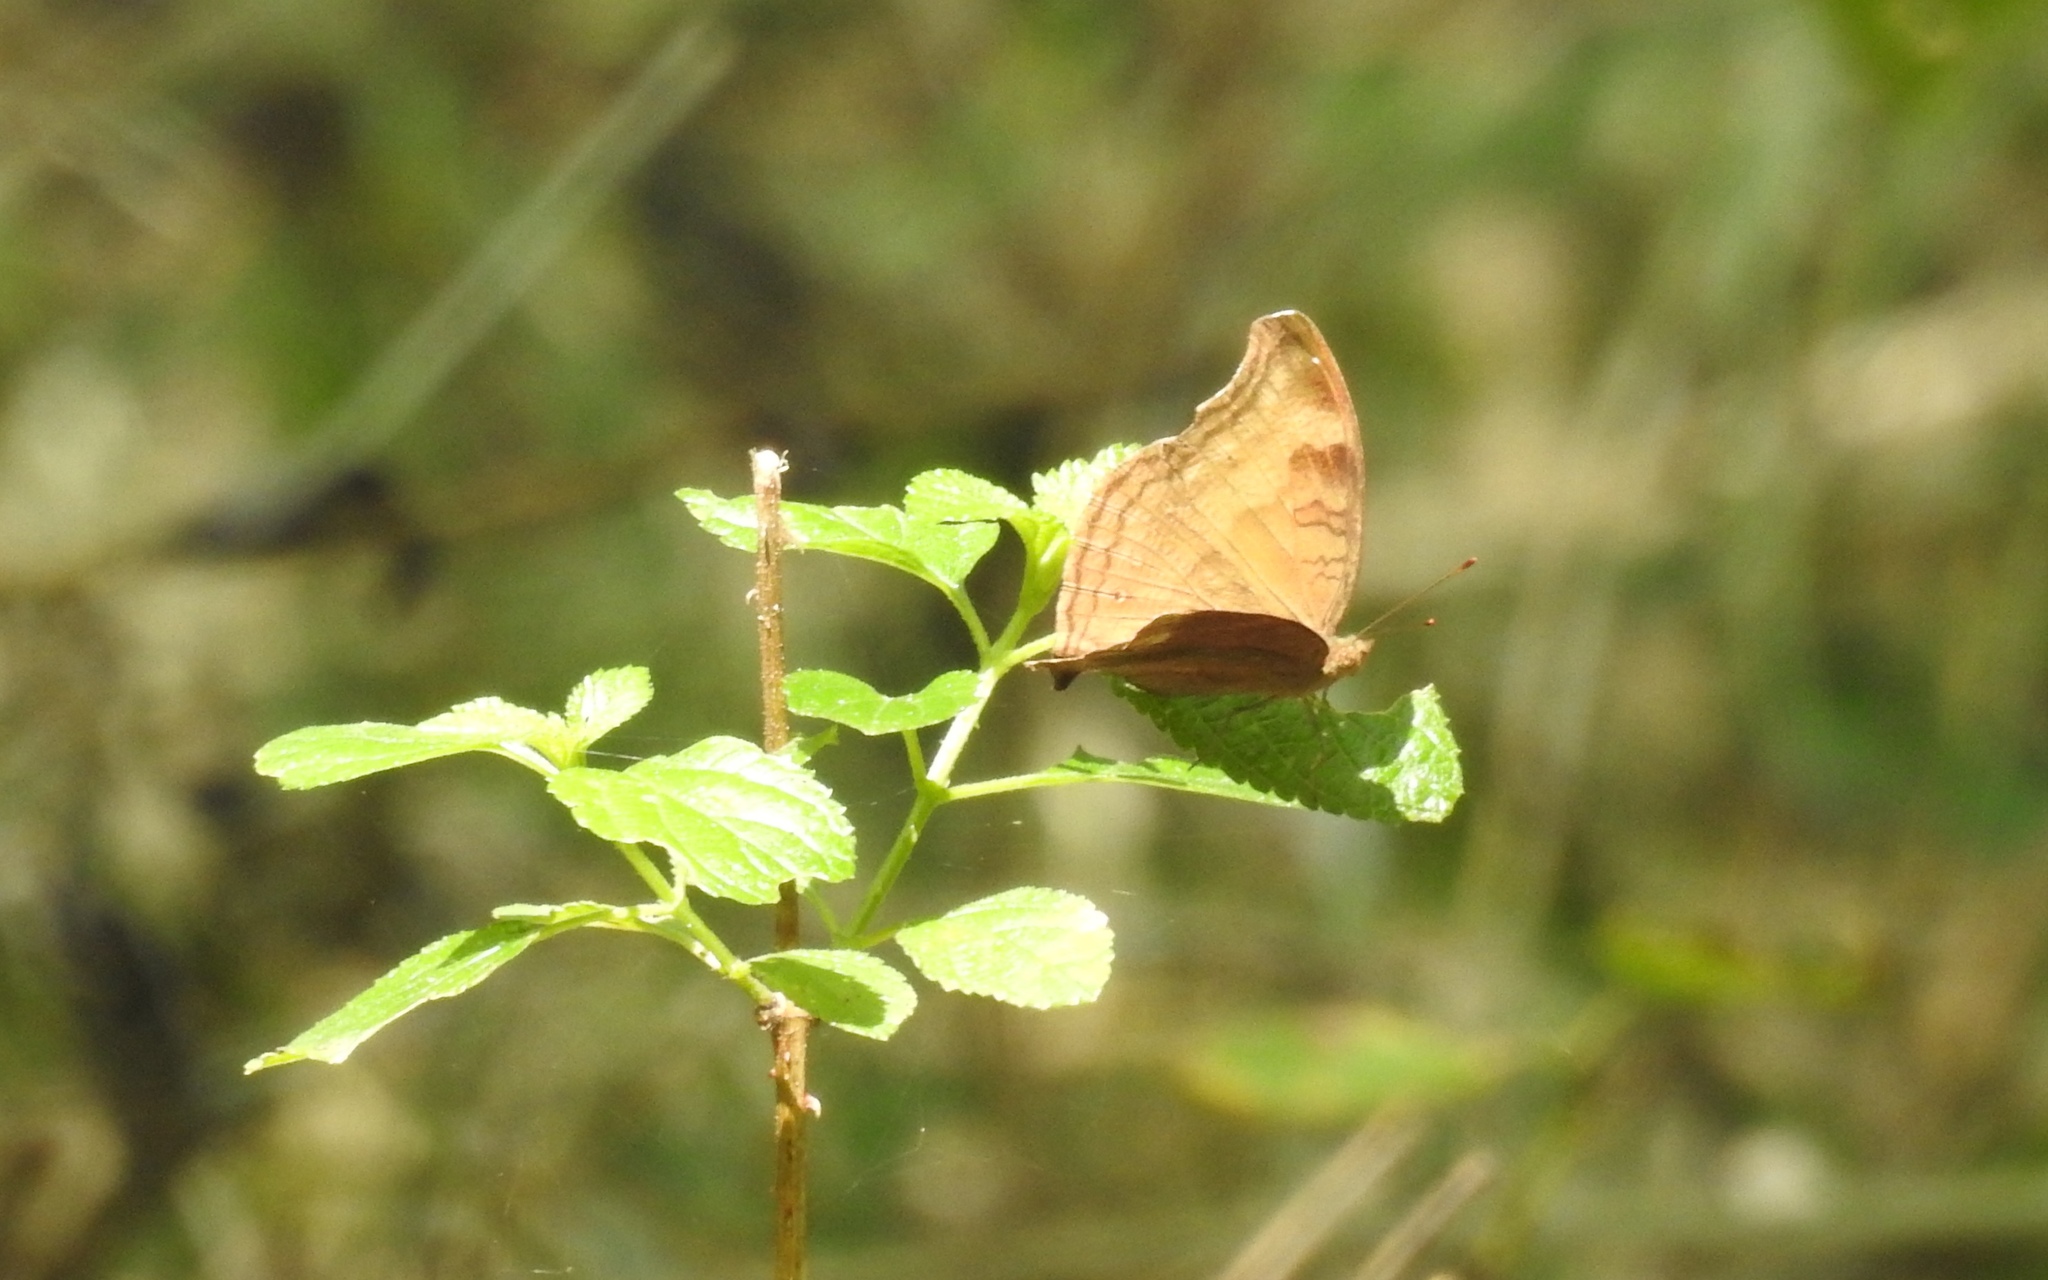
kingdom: Animalia
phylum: Arthropoda
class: Insecta
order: Lepidoptera
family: Nymphalidae
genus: Junonia
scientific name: Junonia iphita
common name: Chocolate pansy
